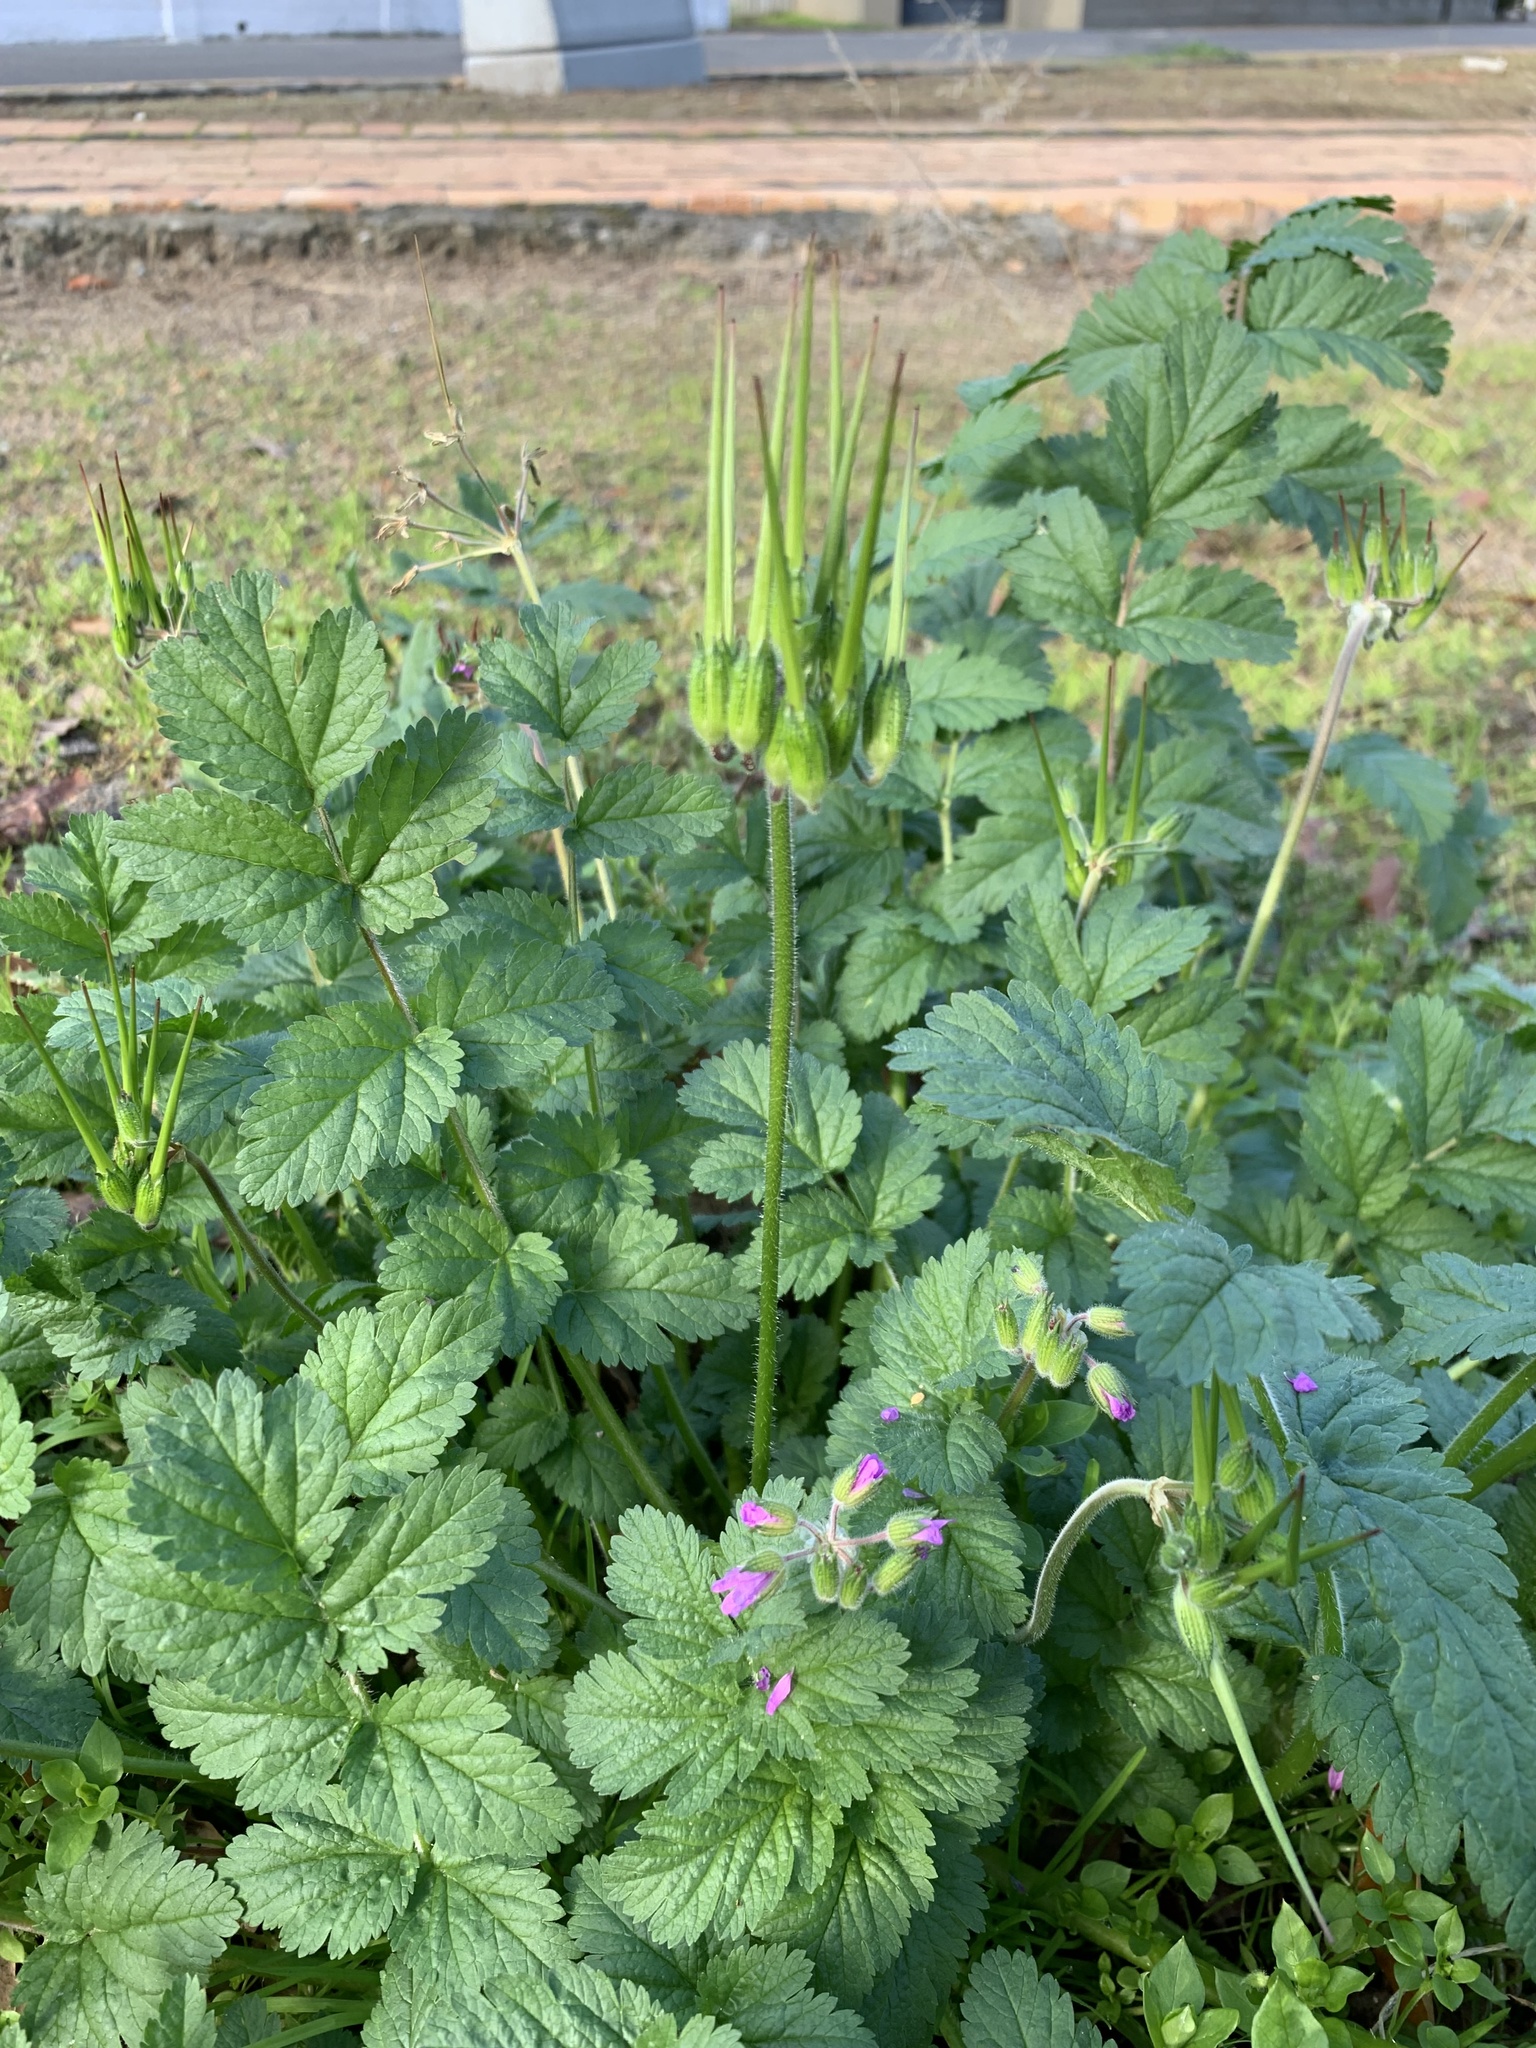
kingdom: Plantae
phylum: Tracheophyta
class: Magnoliopsida
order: Geraniales
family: Geraniaceae
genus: Erodium
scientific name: Erodium moschatum
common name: Musk stork's-bill
